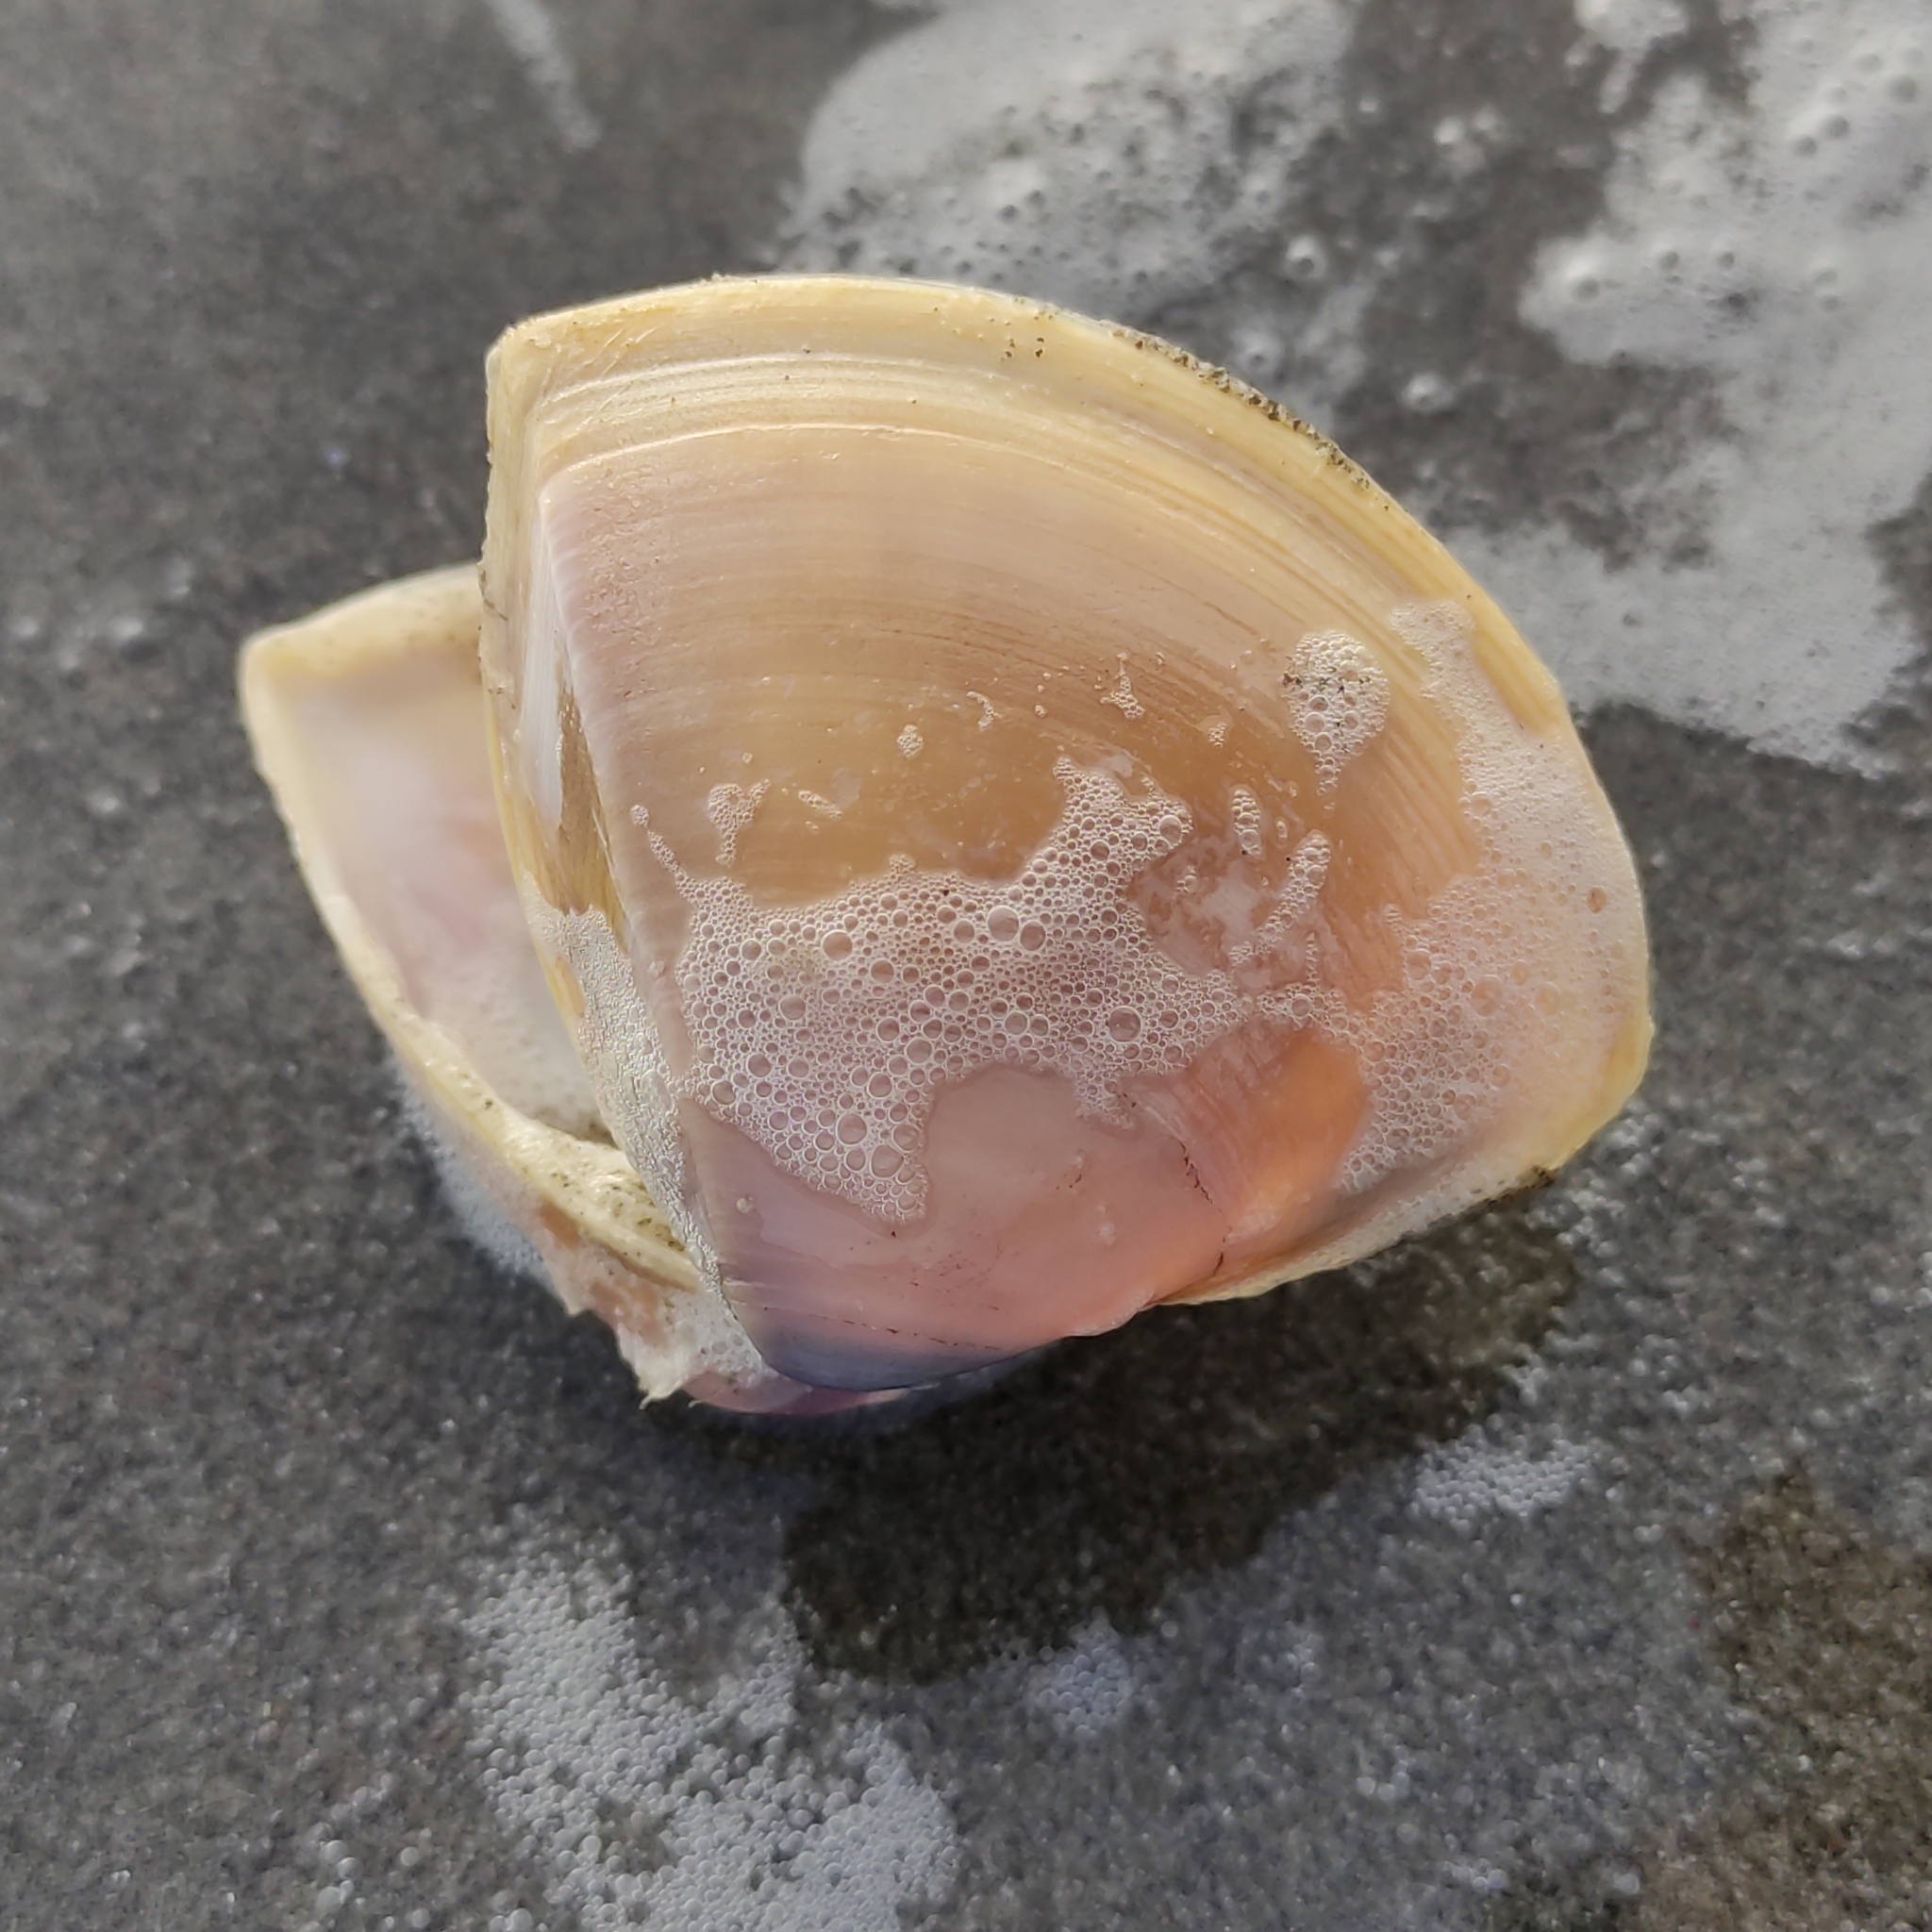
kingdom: Animalia
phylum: Mollusca
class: Bivalvia
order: Venerida
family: Mactridae
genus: Crassula
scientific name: Crassula aequilatera
